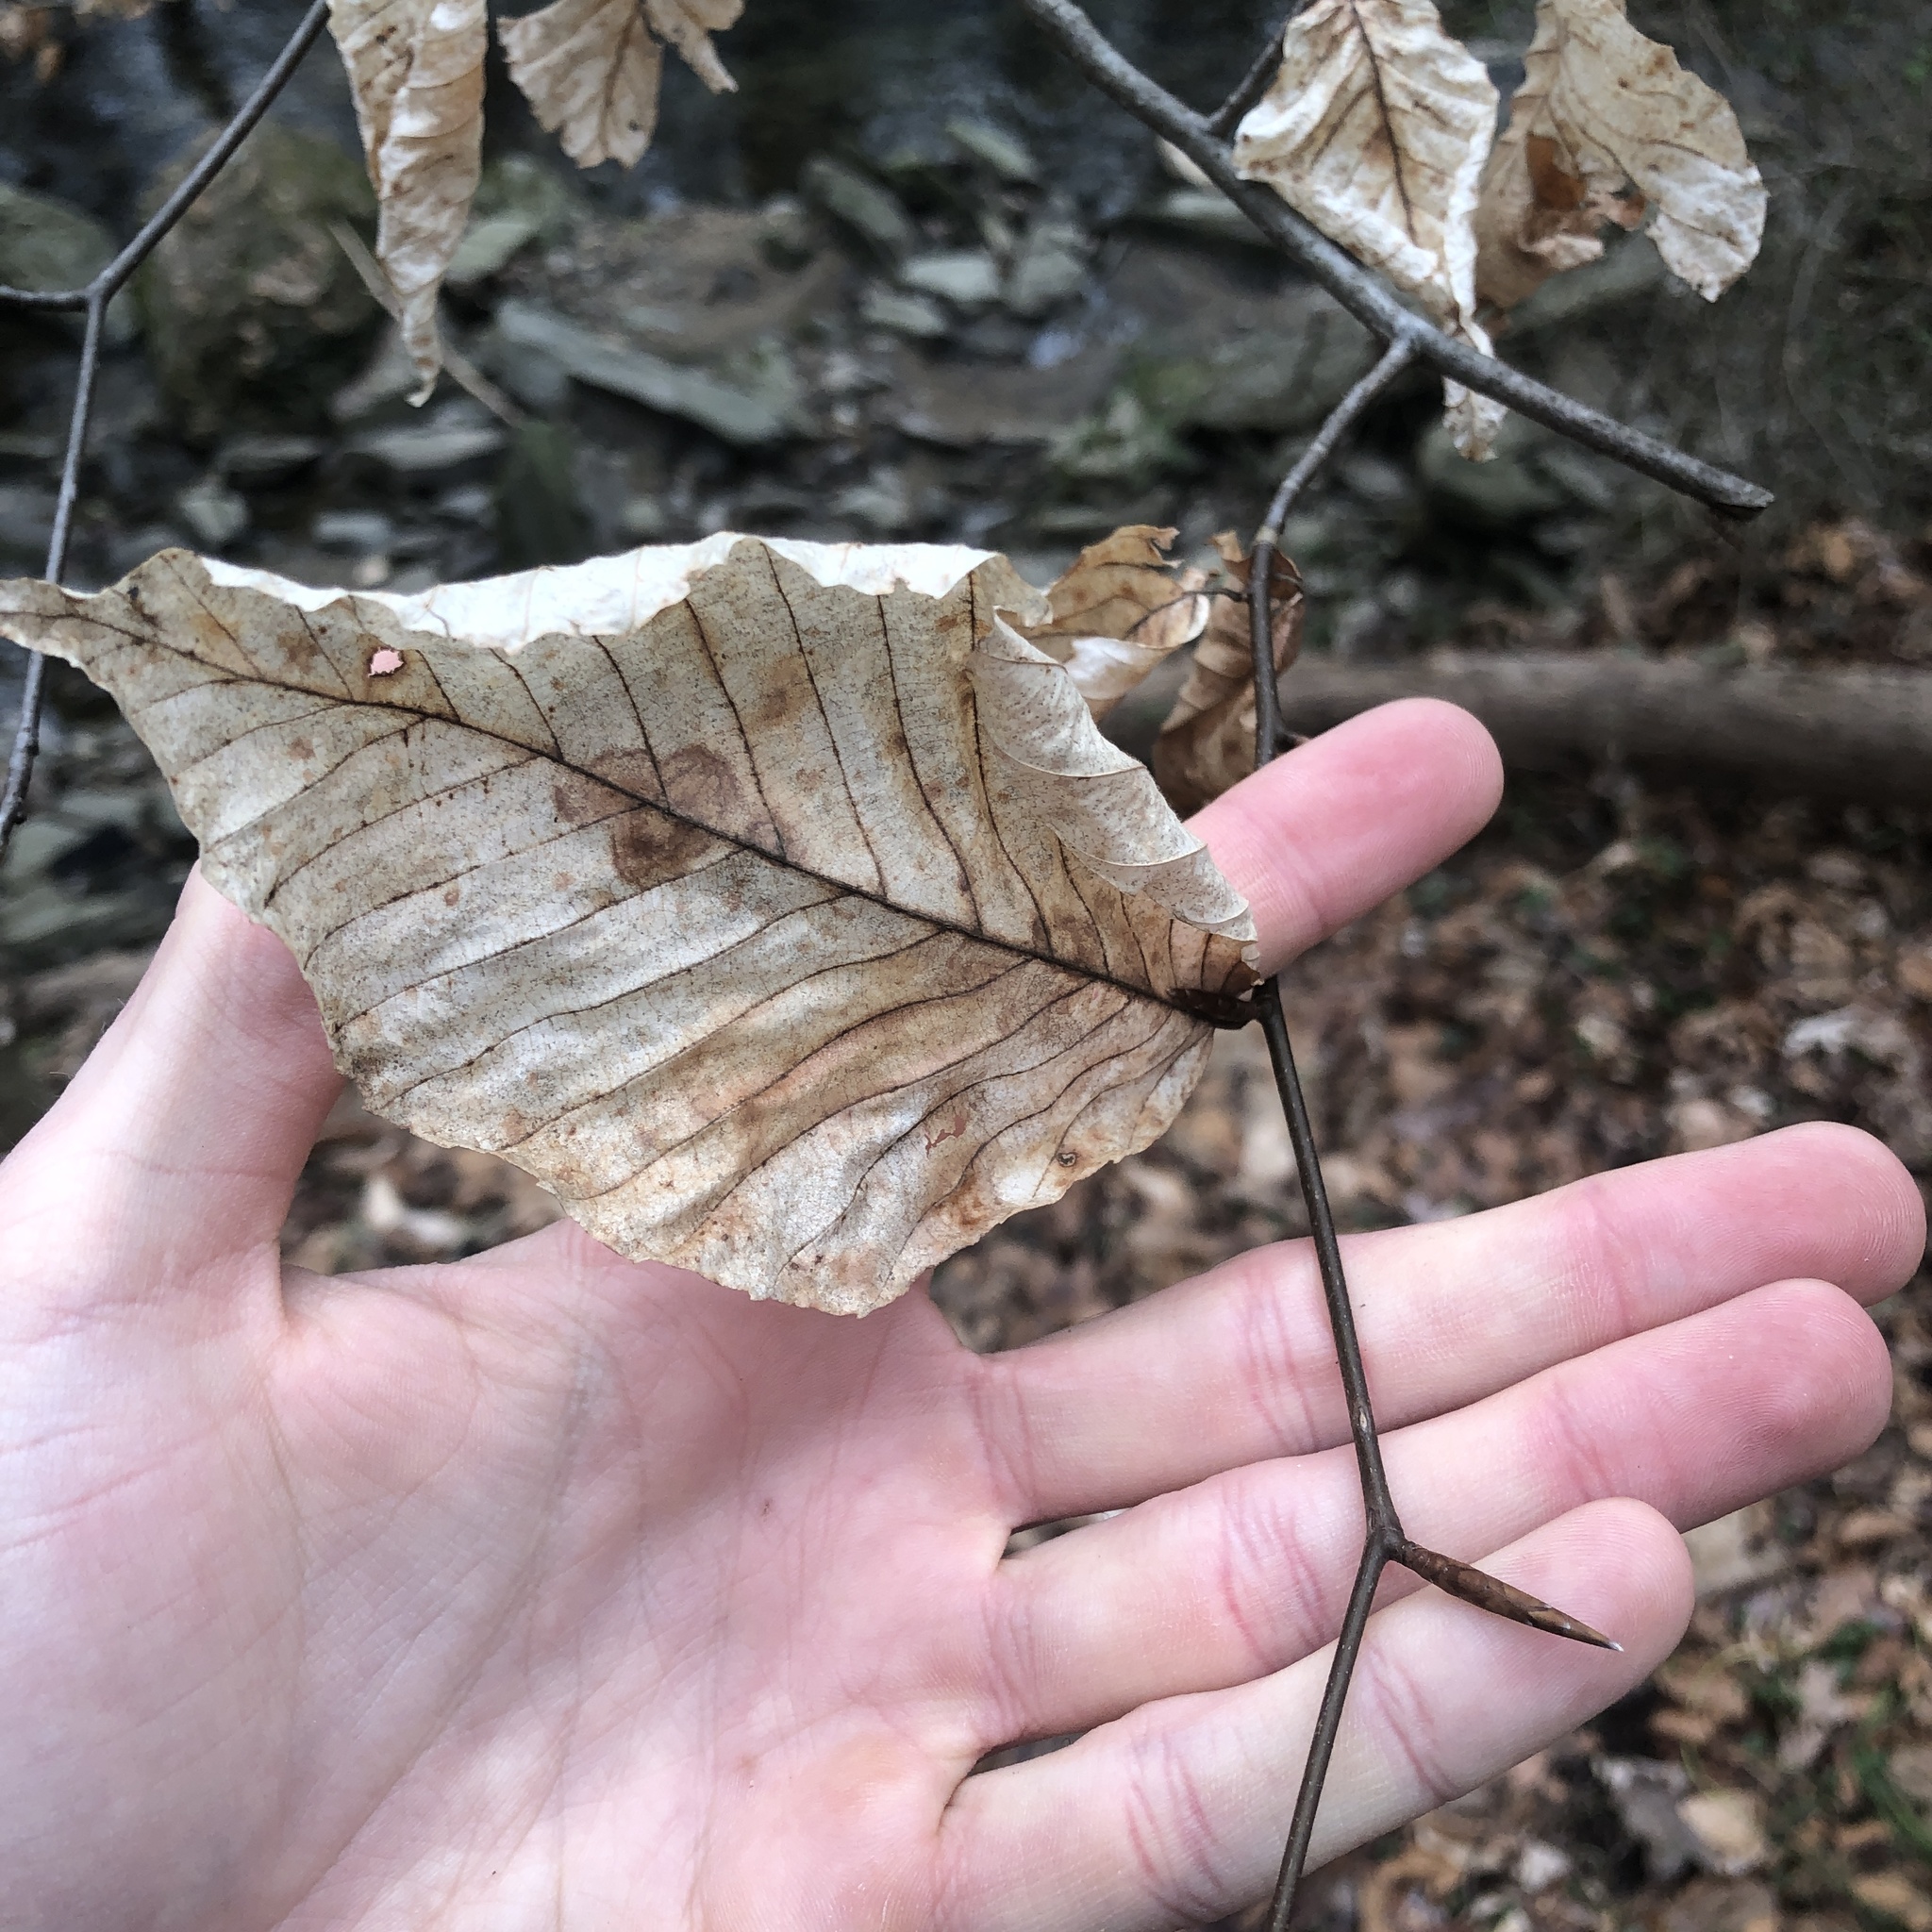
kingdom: Plantae
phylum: Tracheophyta
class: Magnoliopsida
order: Fagales
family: Fagaceae
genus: Fagus
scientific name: Fagus grandifolia
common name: American beech
